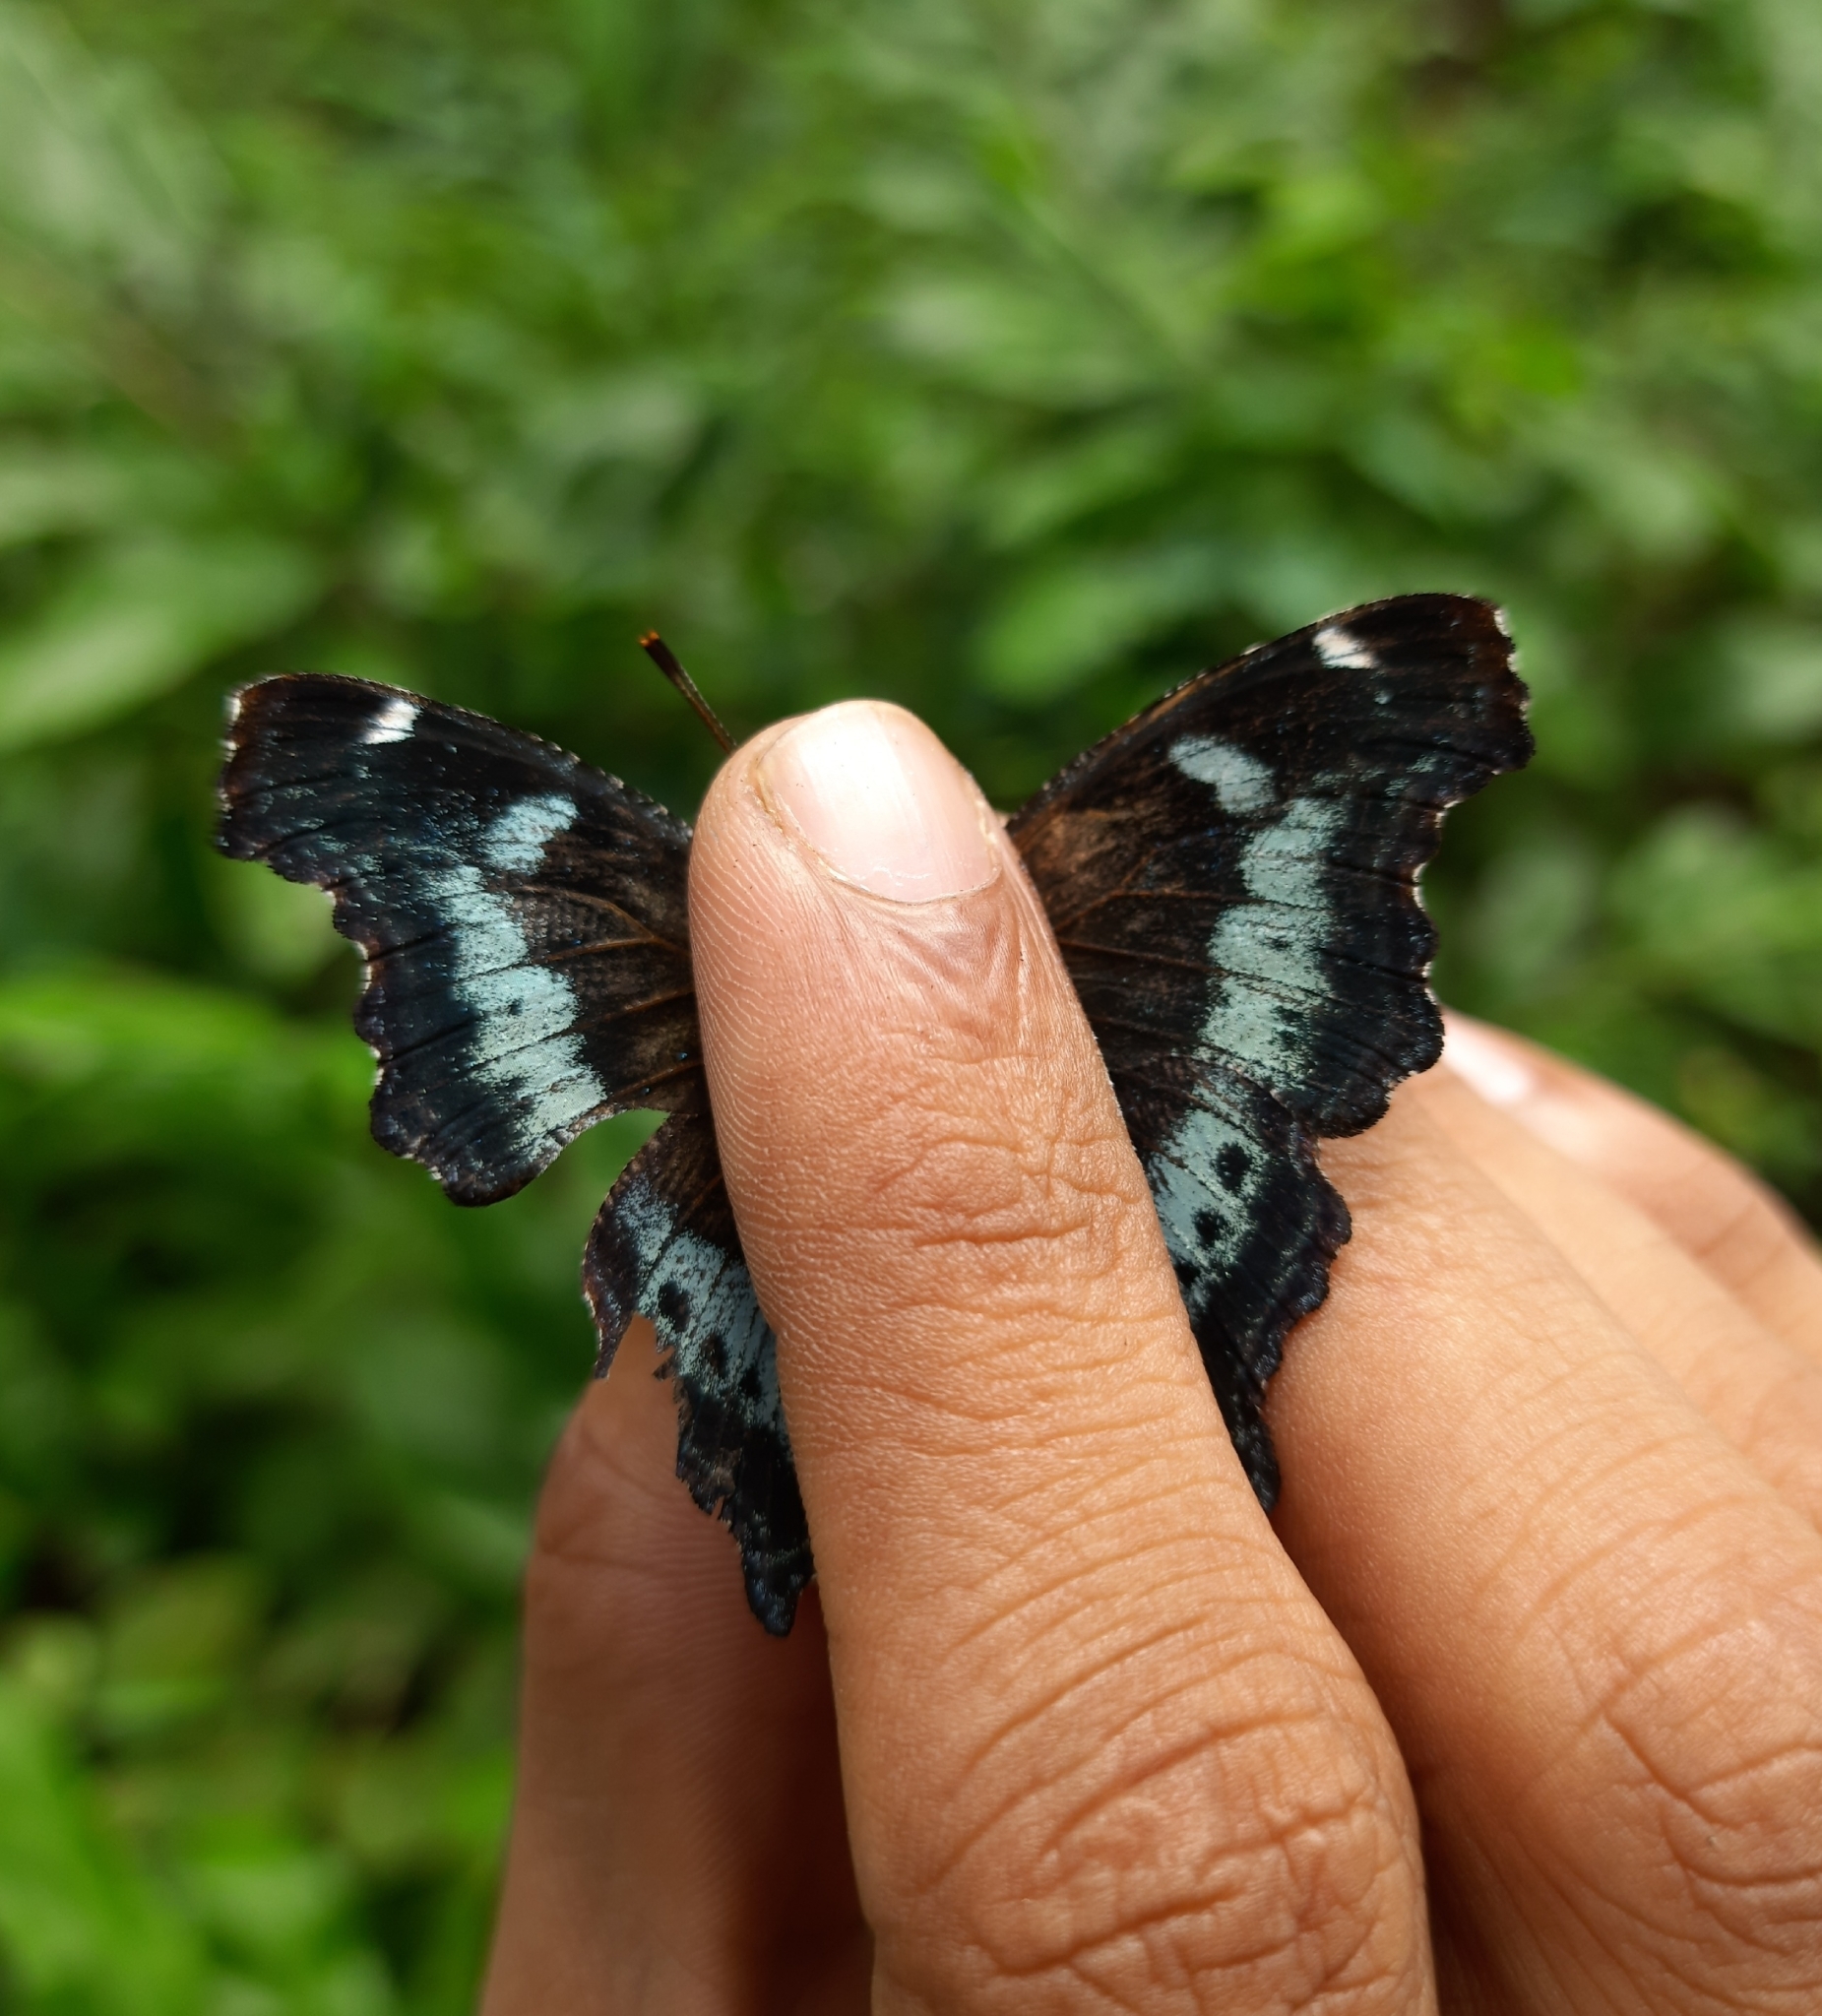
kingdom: Animalia
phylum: Arthropoda
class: Insecta
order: Lepidoptera
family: Nymphalidae
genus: Vanessa
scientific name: Vanessa Kaniska canace
